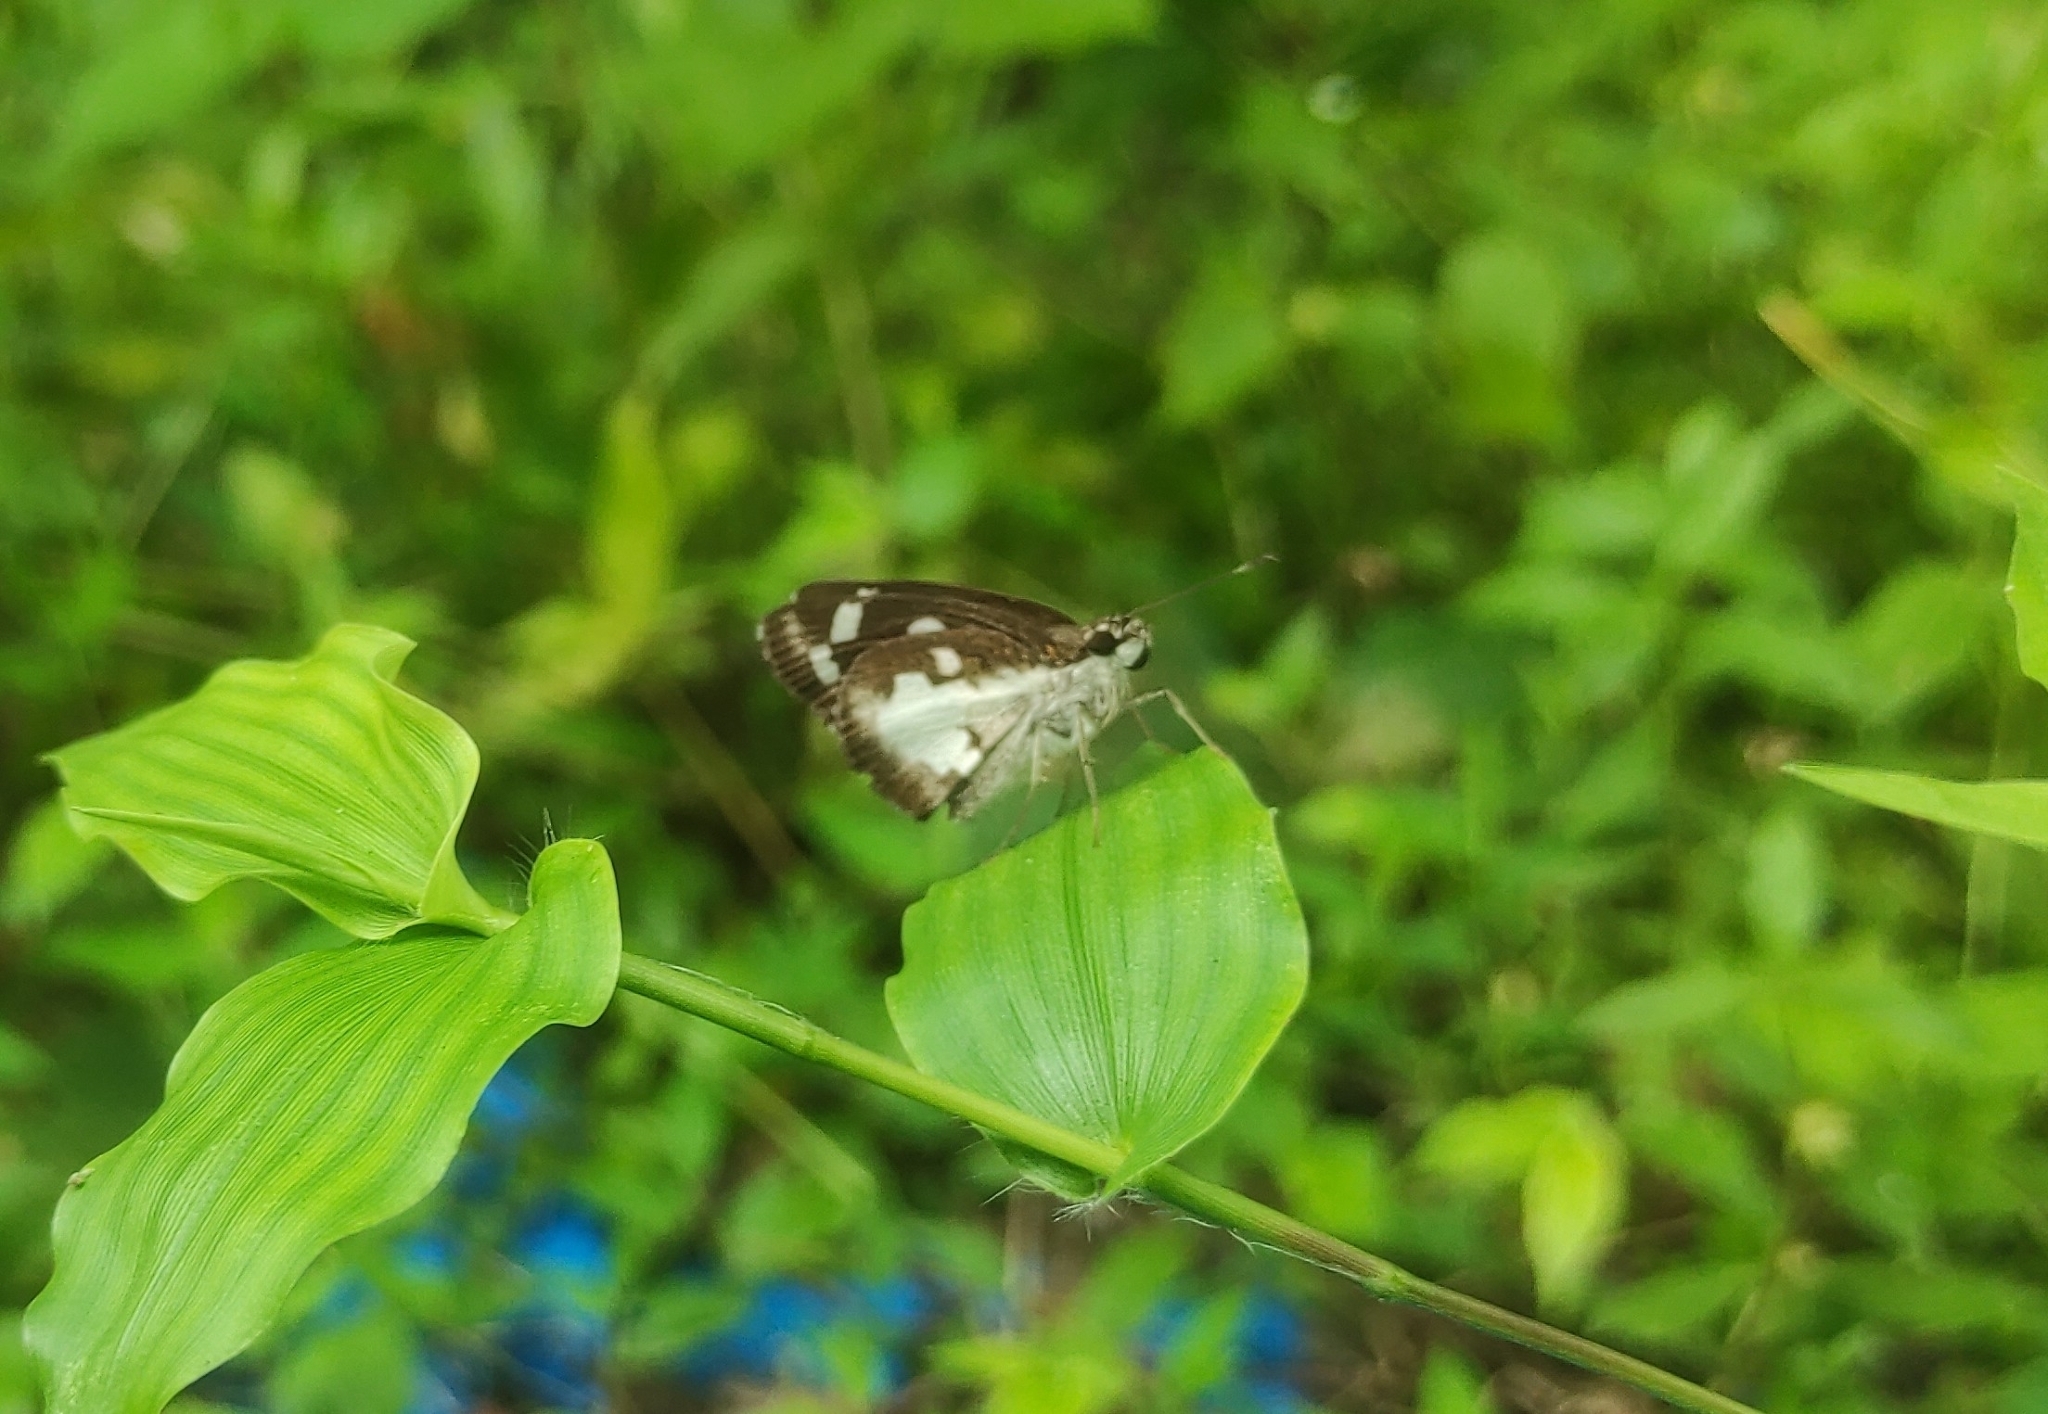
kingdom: Animalia
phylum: Arthropoda
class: Insecta
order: Lepidoptera
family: Hesperiidae
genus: Udaspes
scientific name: Udaspes folus
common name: Grass demon
